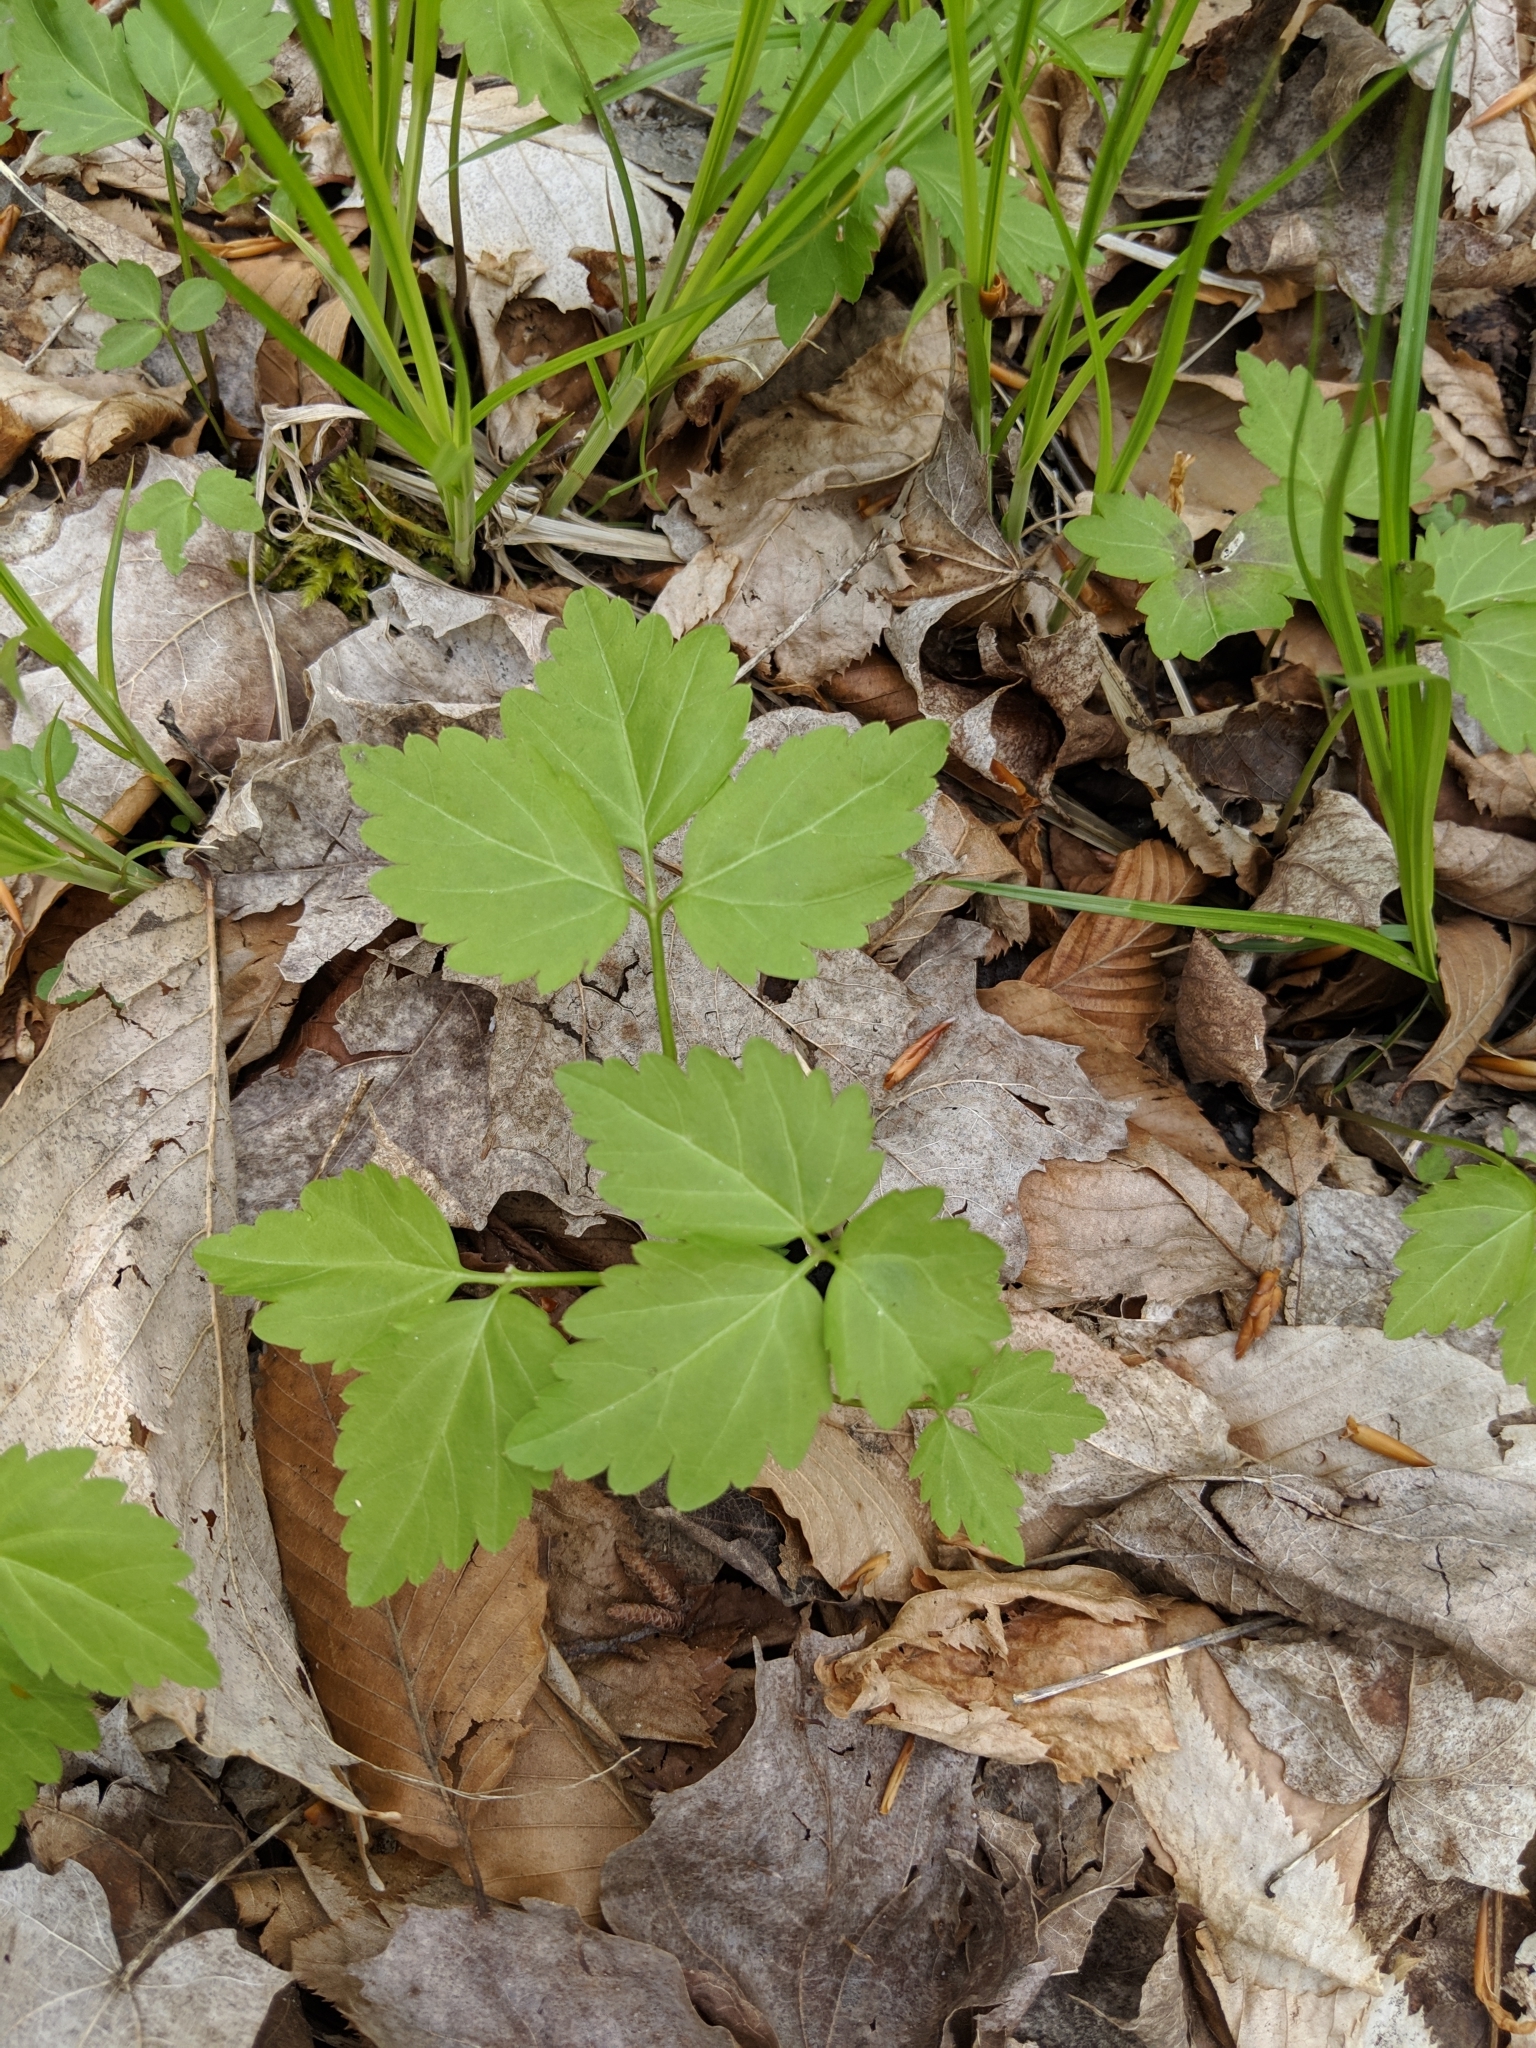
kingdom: Plantae
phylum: Tracheophyta
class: Magnoliopsida
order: Brassicales
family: Brassicaceae
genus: Cardamine
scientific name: Cardamine diphylla
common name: Broad-leaved toothwort
